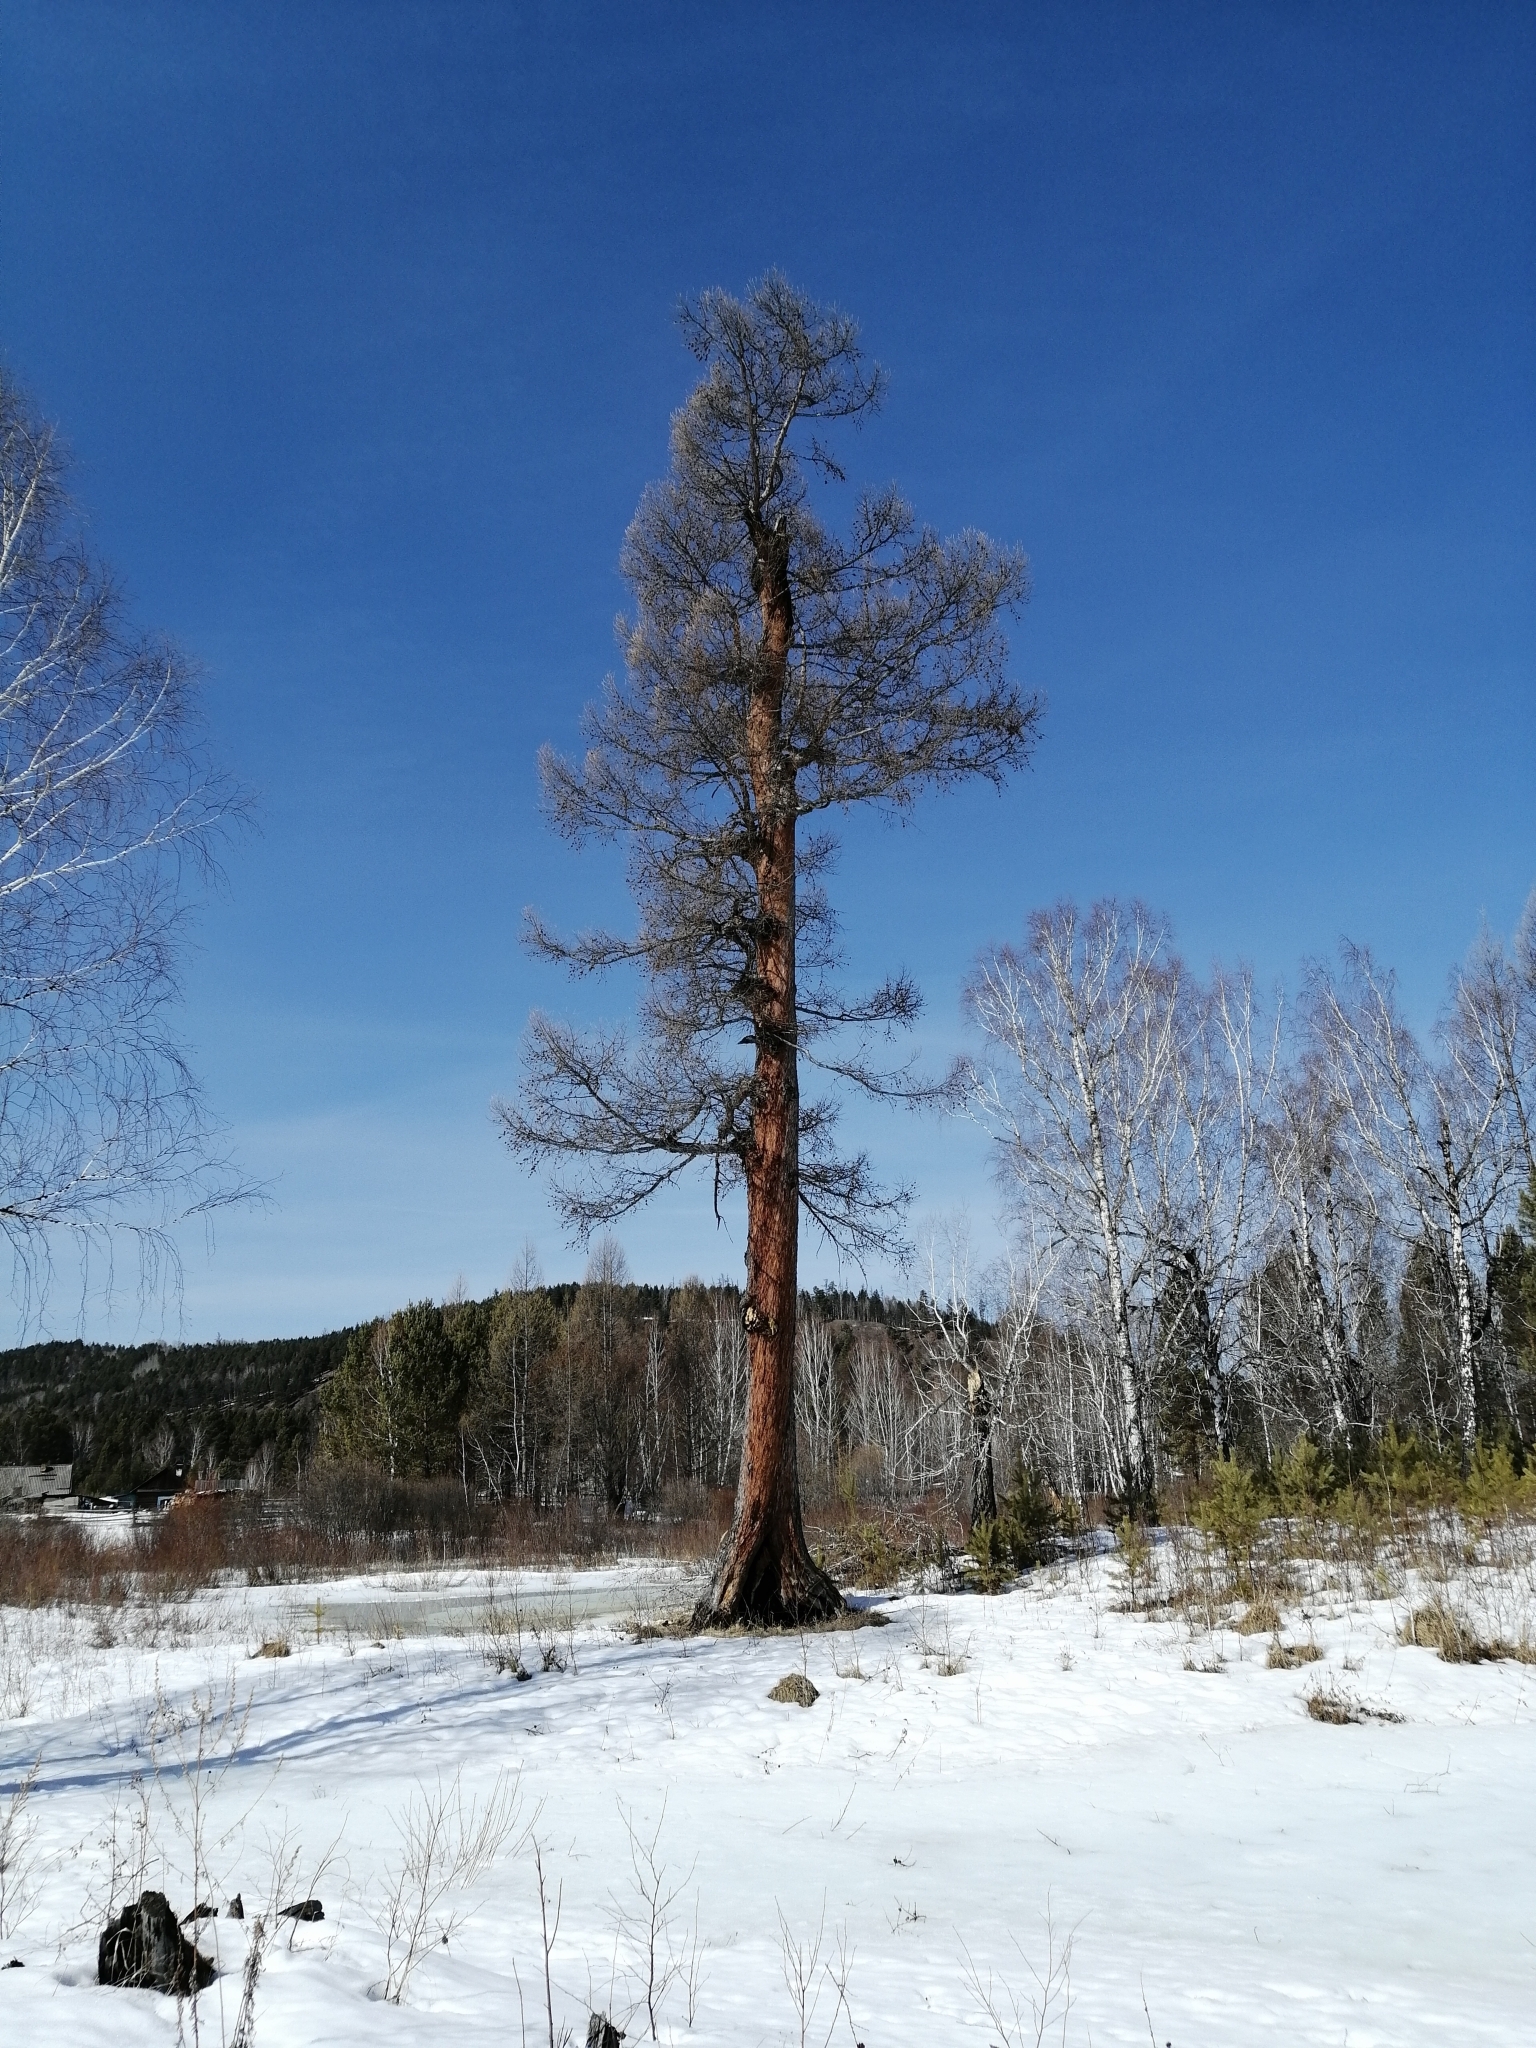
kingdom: Plantae
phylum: Tracheophyta
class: Pinopsida
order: Pinales
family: Pinaceae
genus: Larix
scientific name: Larix sibirica
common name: Siberian larch
